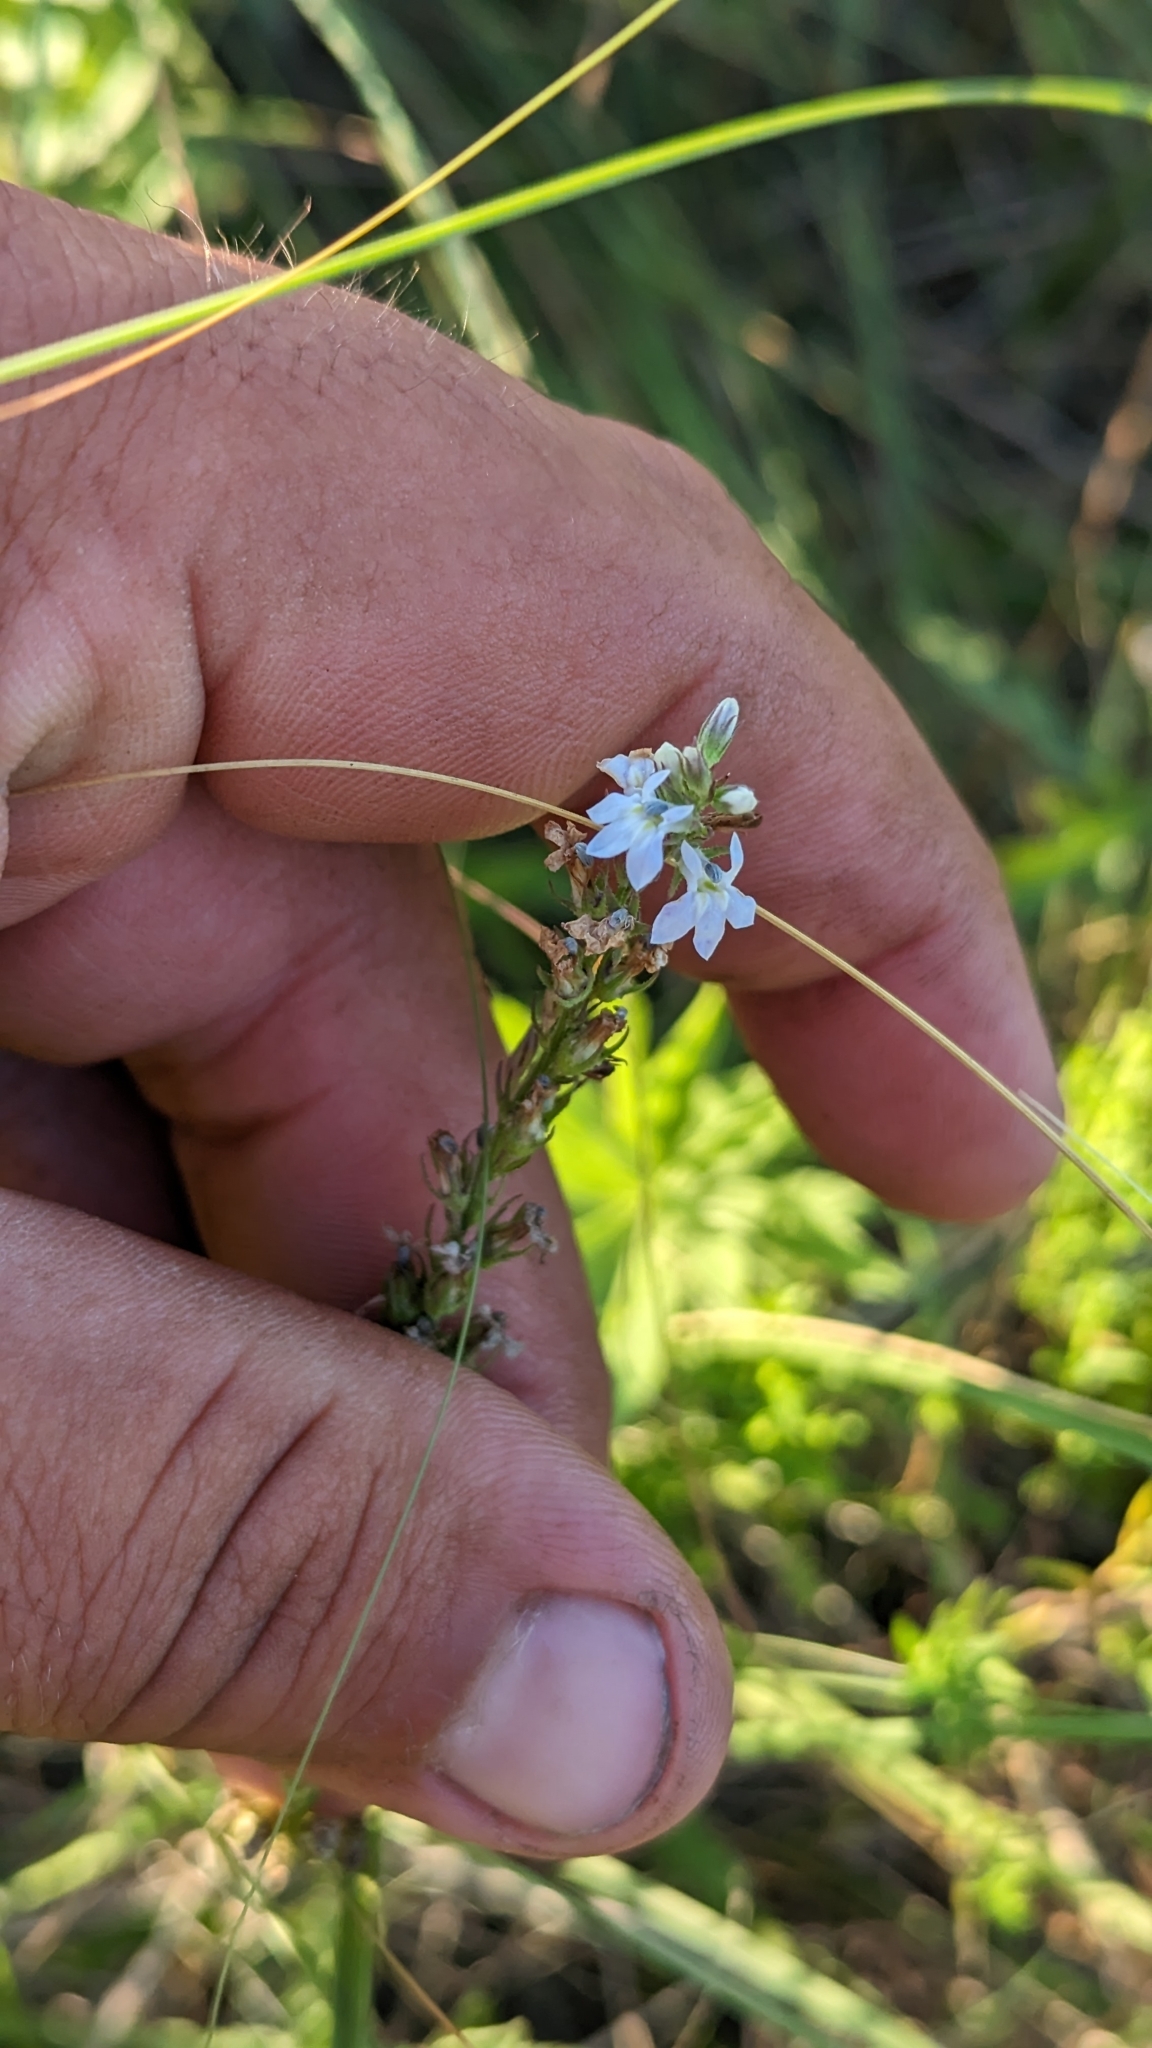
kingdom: Plantae
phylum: Tracheophyta
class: Magnoliopsida
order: Asterales
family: Campanulaceae
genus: Lobelia
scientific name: Lobelia spicata
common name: Pale-spike lobelia
